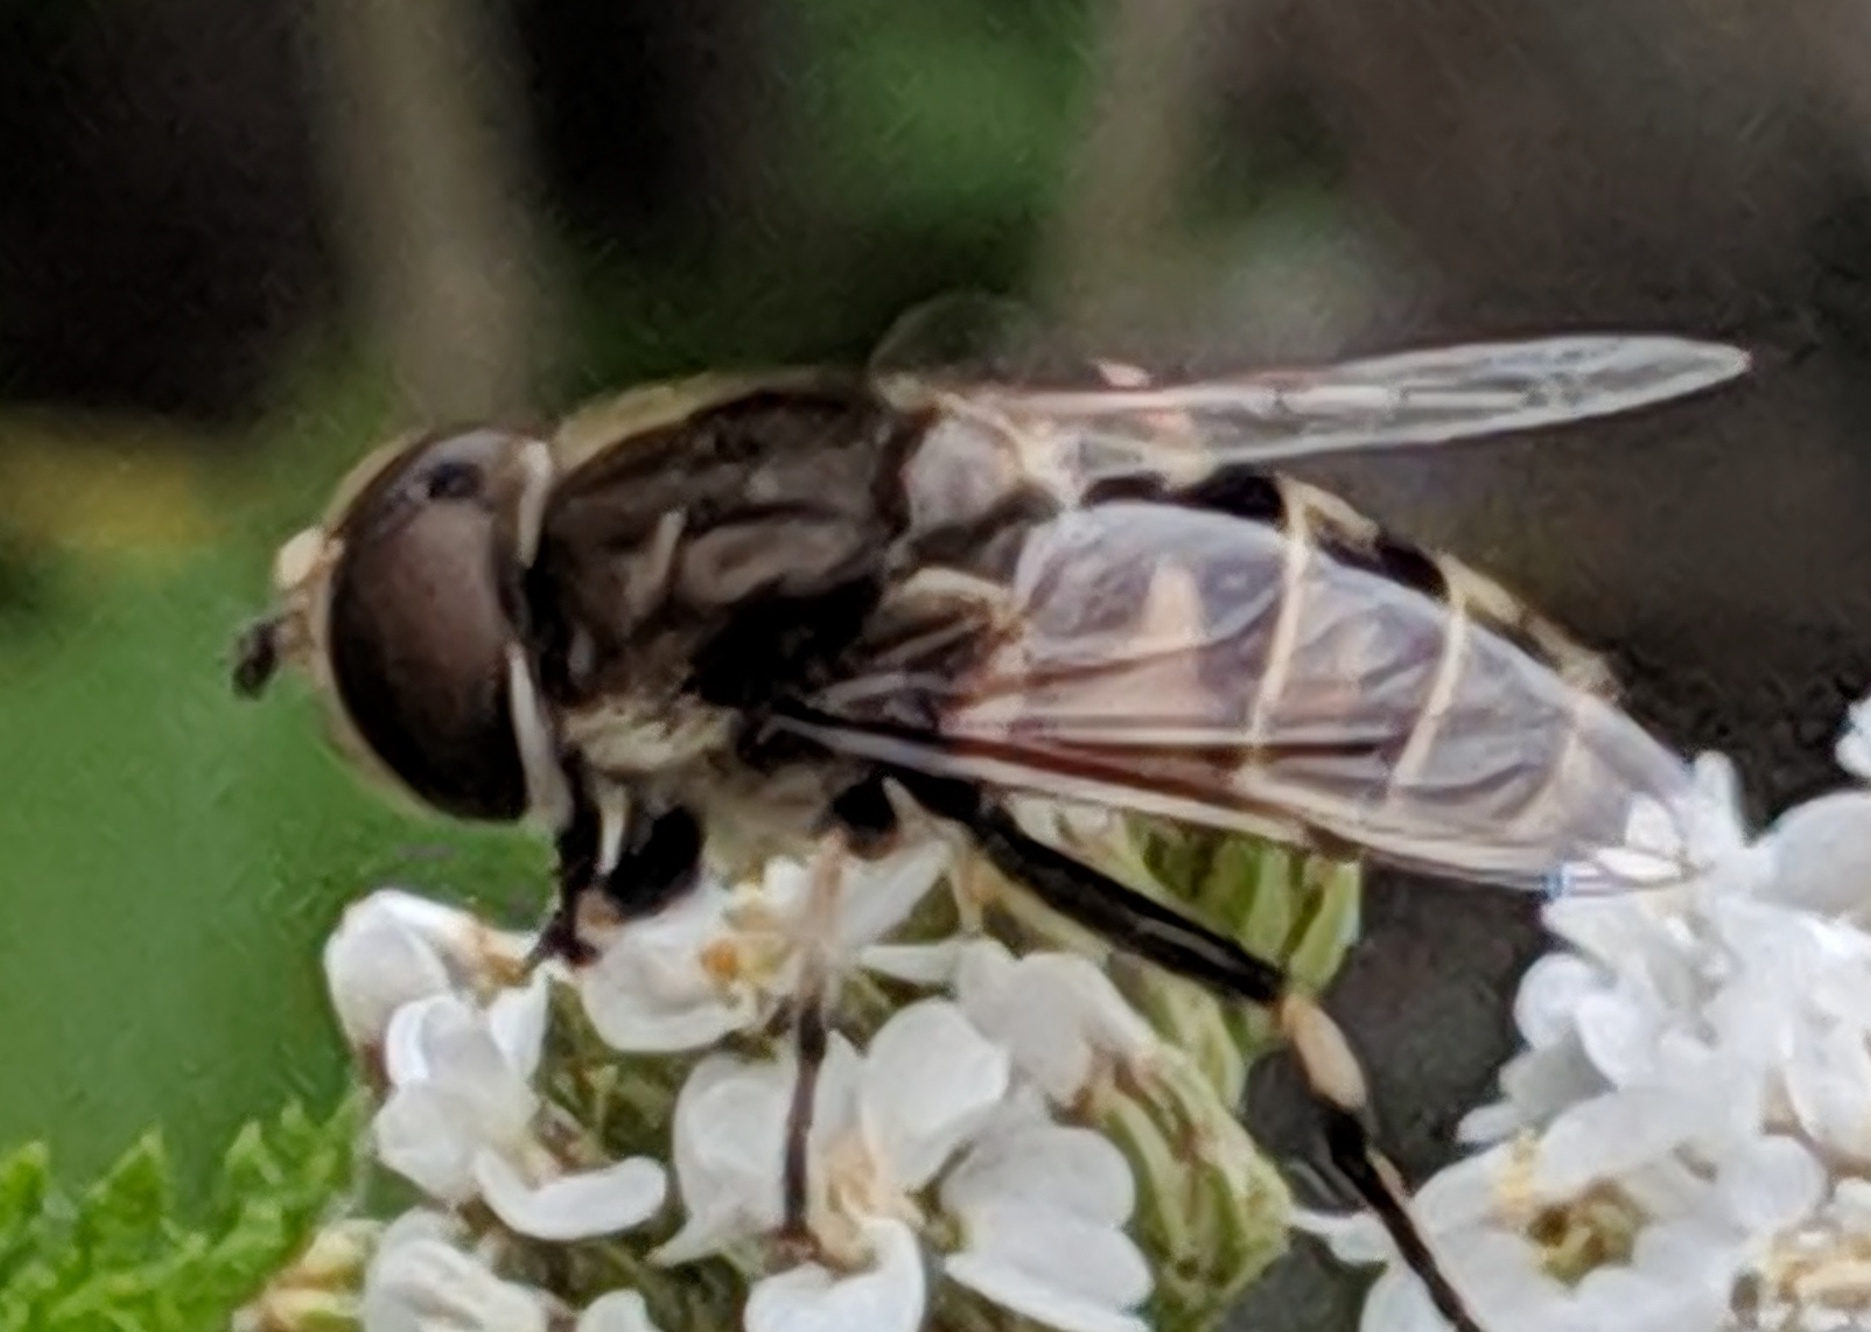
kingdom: Animalia
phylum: Arthropoda
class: Insecta
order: Diptera
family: Syrphidae
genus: Eristalis
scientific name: Eristalis dimidiata
